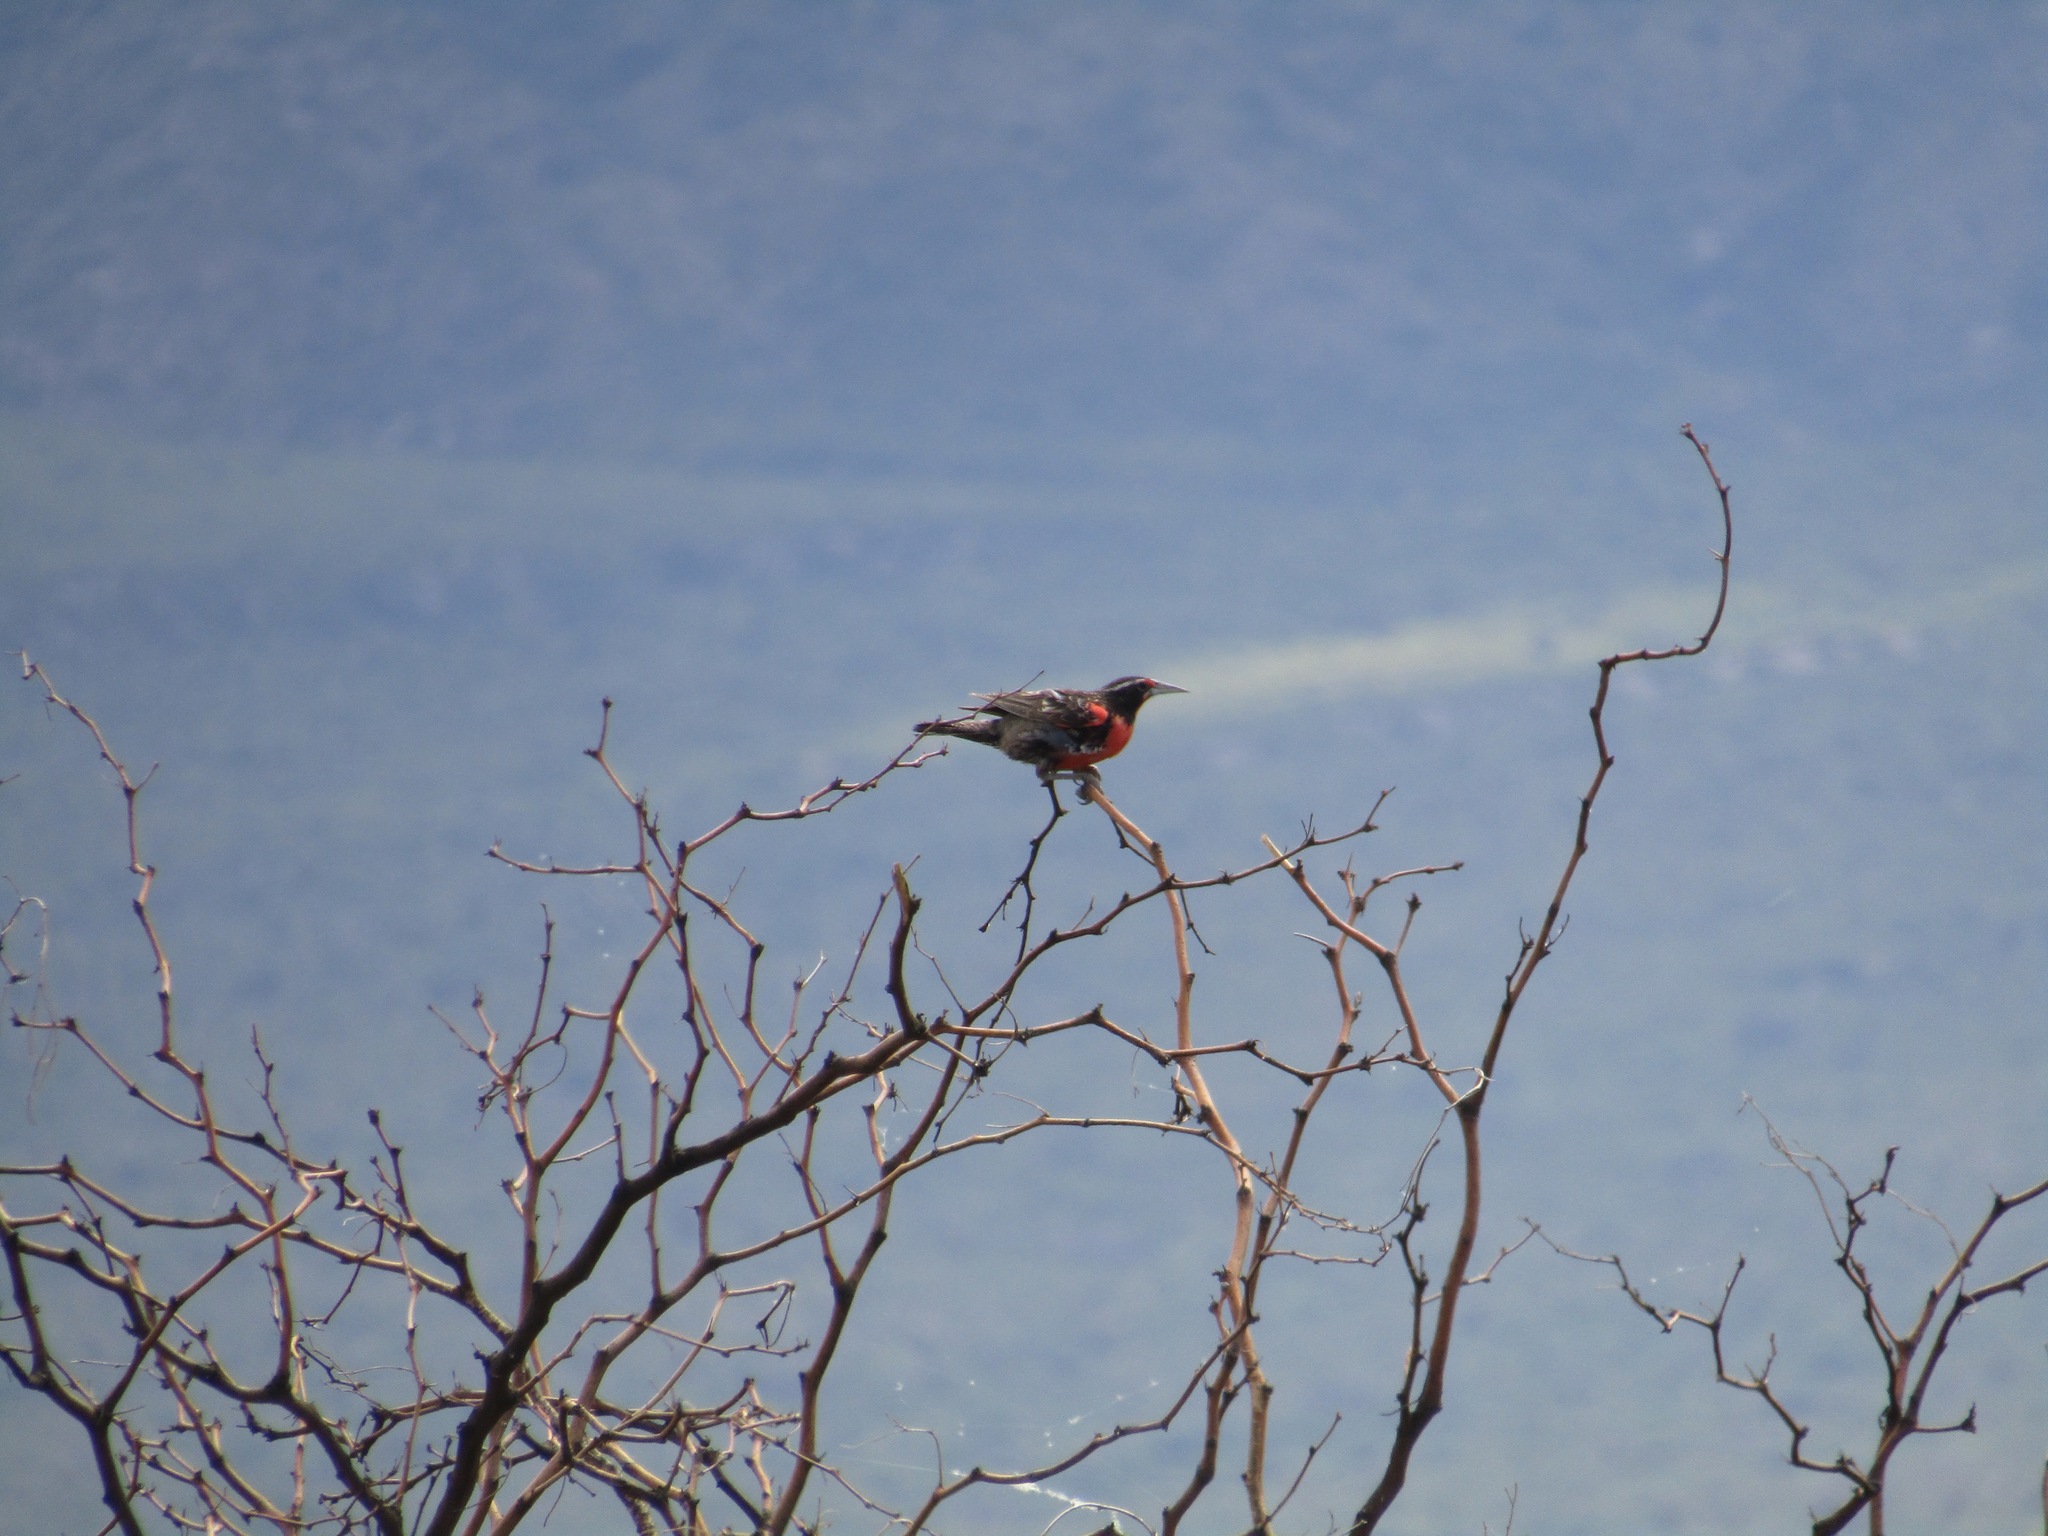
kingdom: Animalia
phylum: Chordata
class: Aves
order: Passeriformes
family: Icteridae
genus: Sturnella
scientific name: Sturnella loyca
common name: Long-tailed meadowlark
